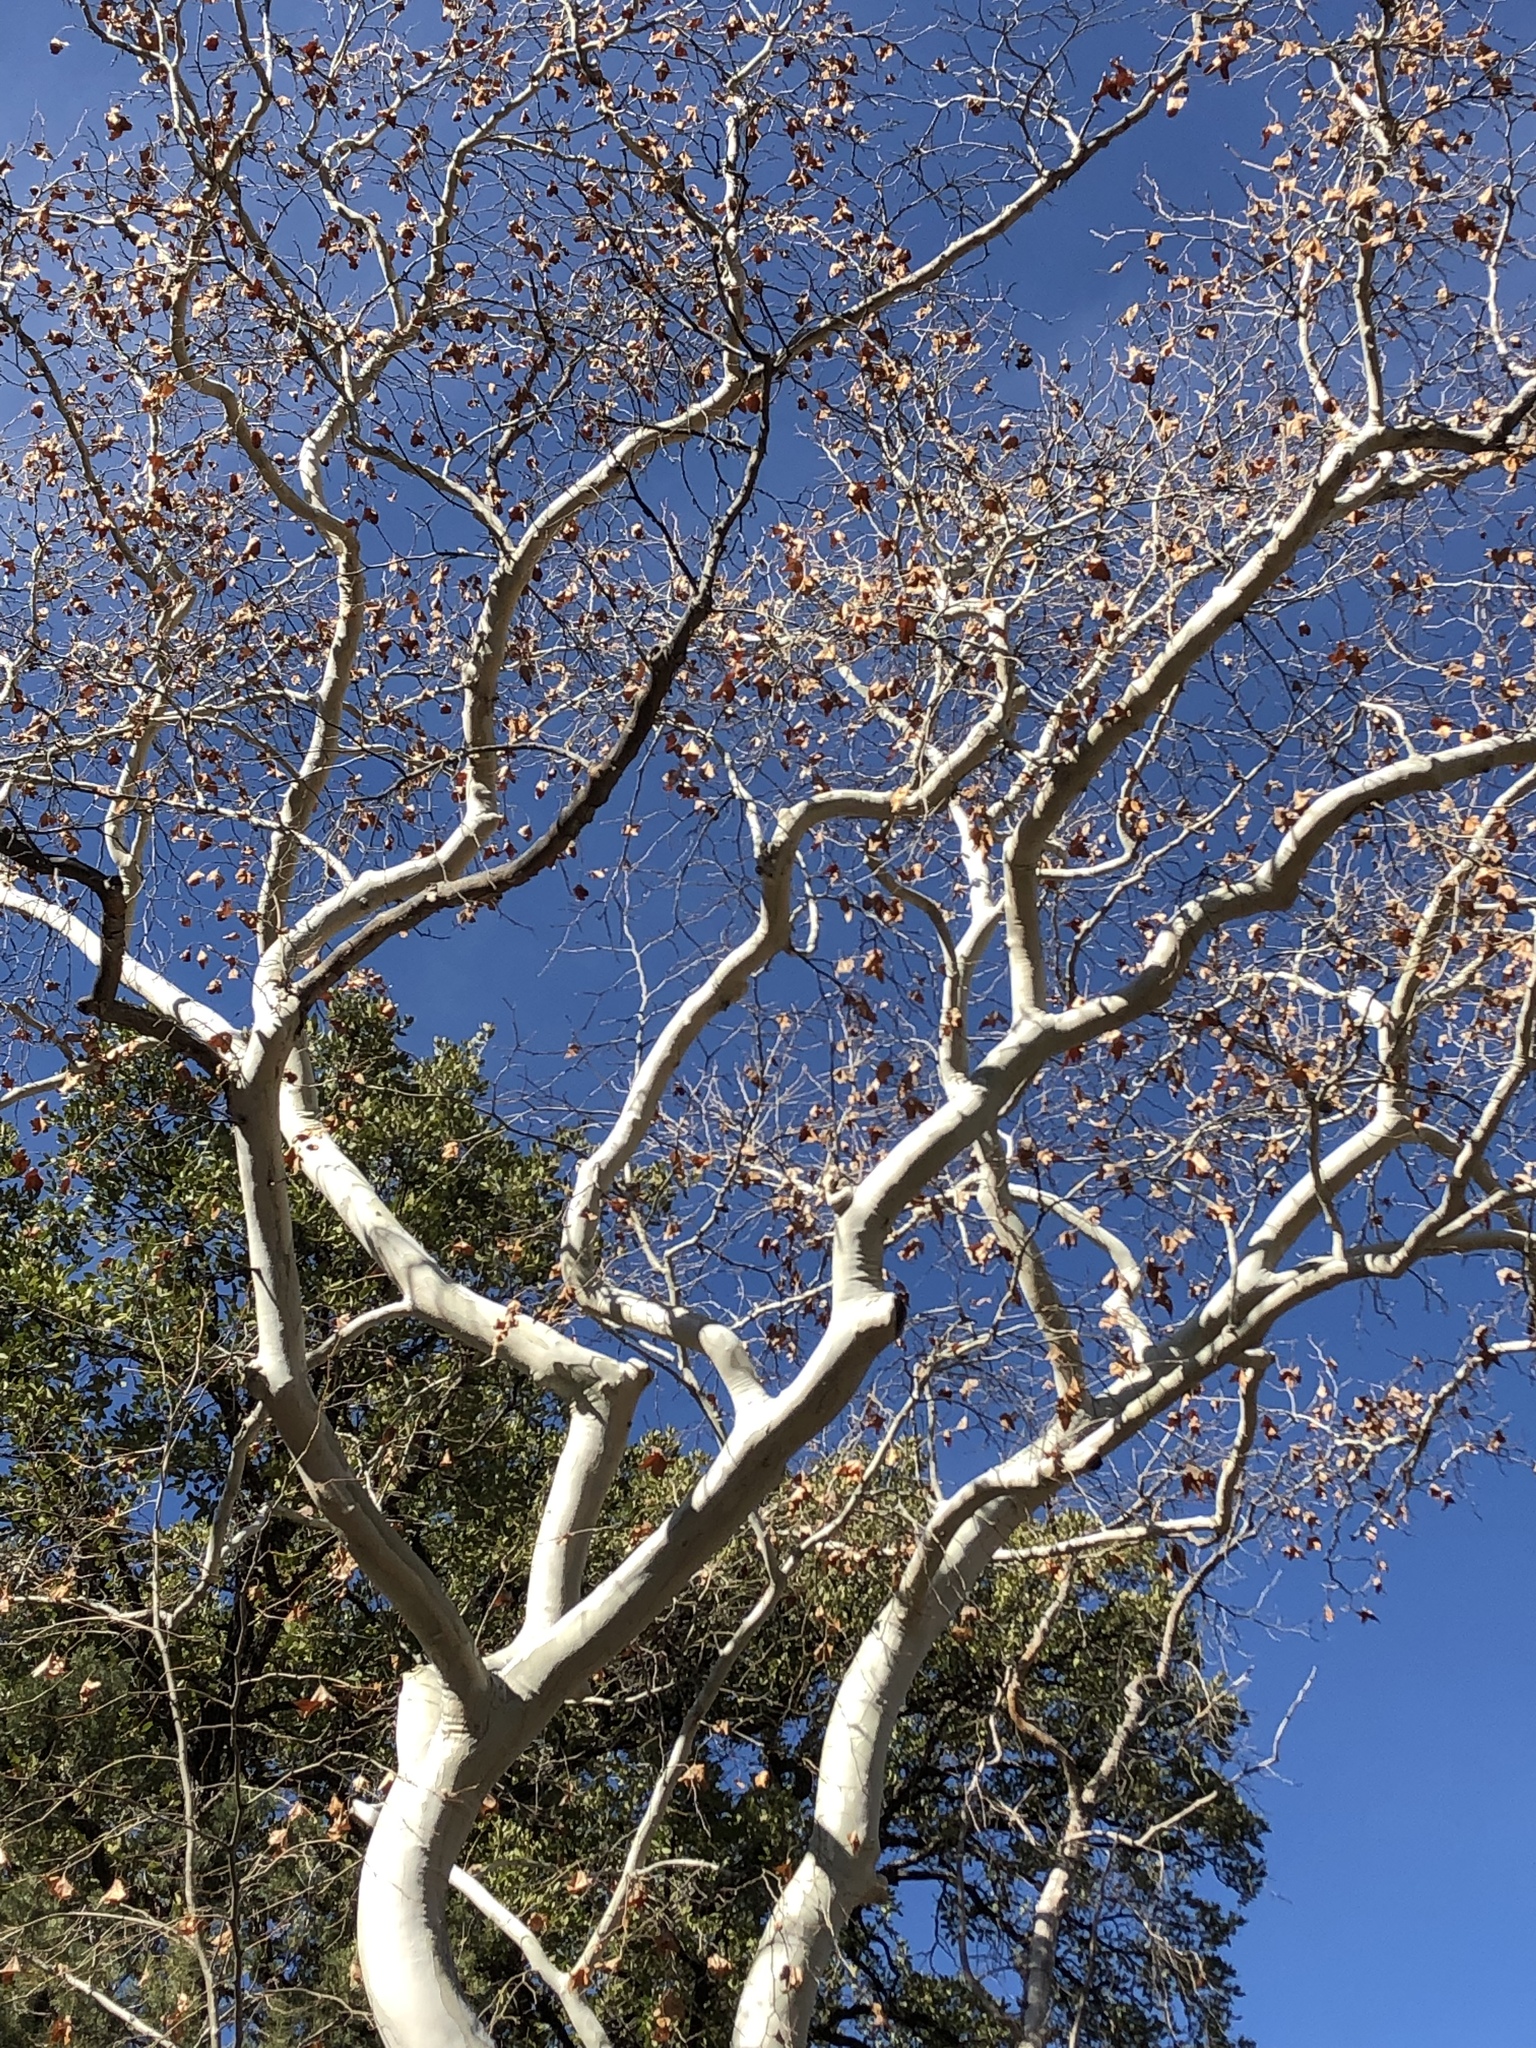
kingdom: Plantae
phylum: Tracheophyta
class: Magnoliopsida
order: Proteales
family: Platanaceae
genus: Platanus
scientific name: Platanus wrightii
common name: Arizona sycamore
